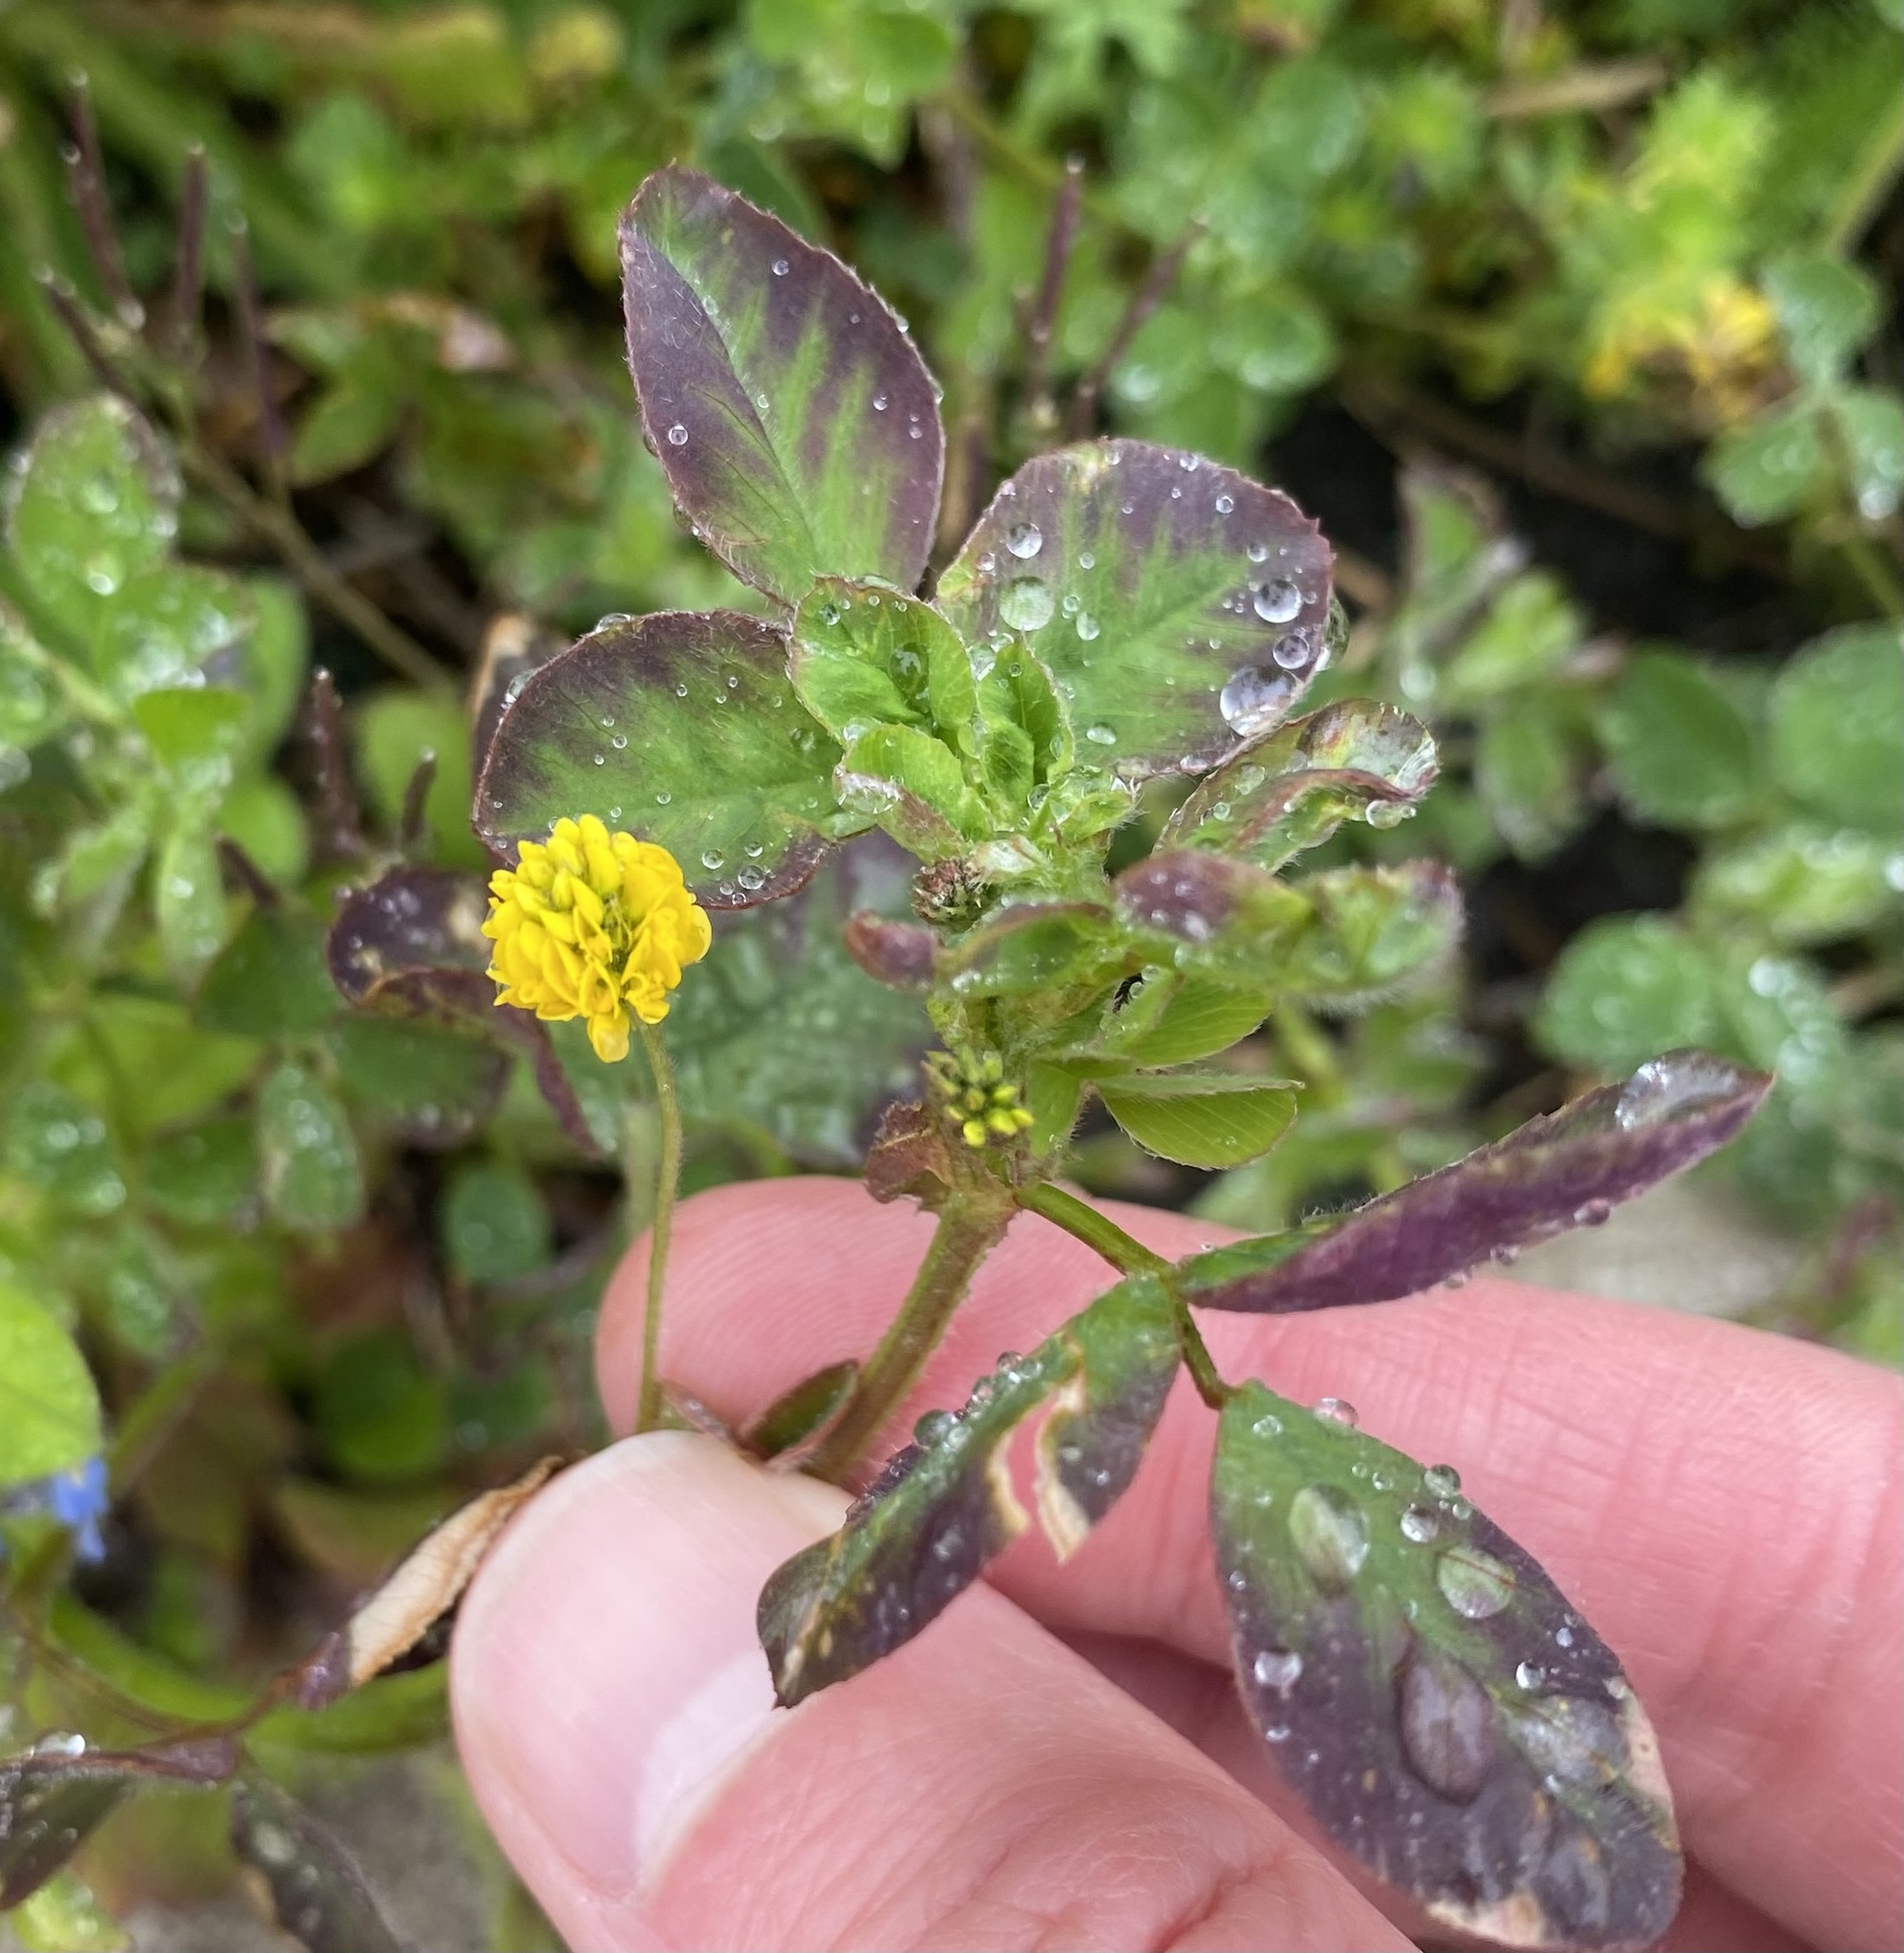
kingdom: Plantae
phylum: Tracheophyta
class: Magnoliopsida
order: Fabales
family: Fabaceae
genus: Medicago
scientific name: Medicago lupulina
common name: Black medick
